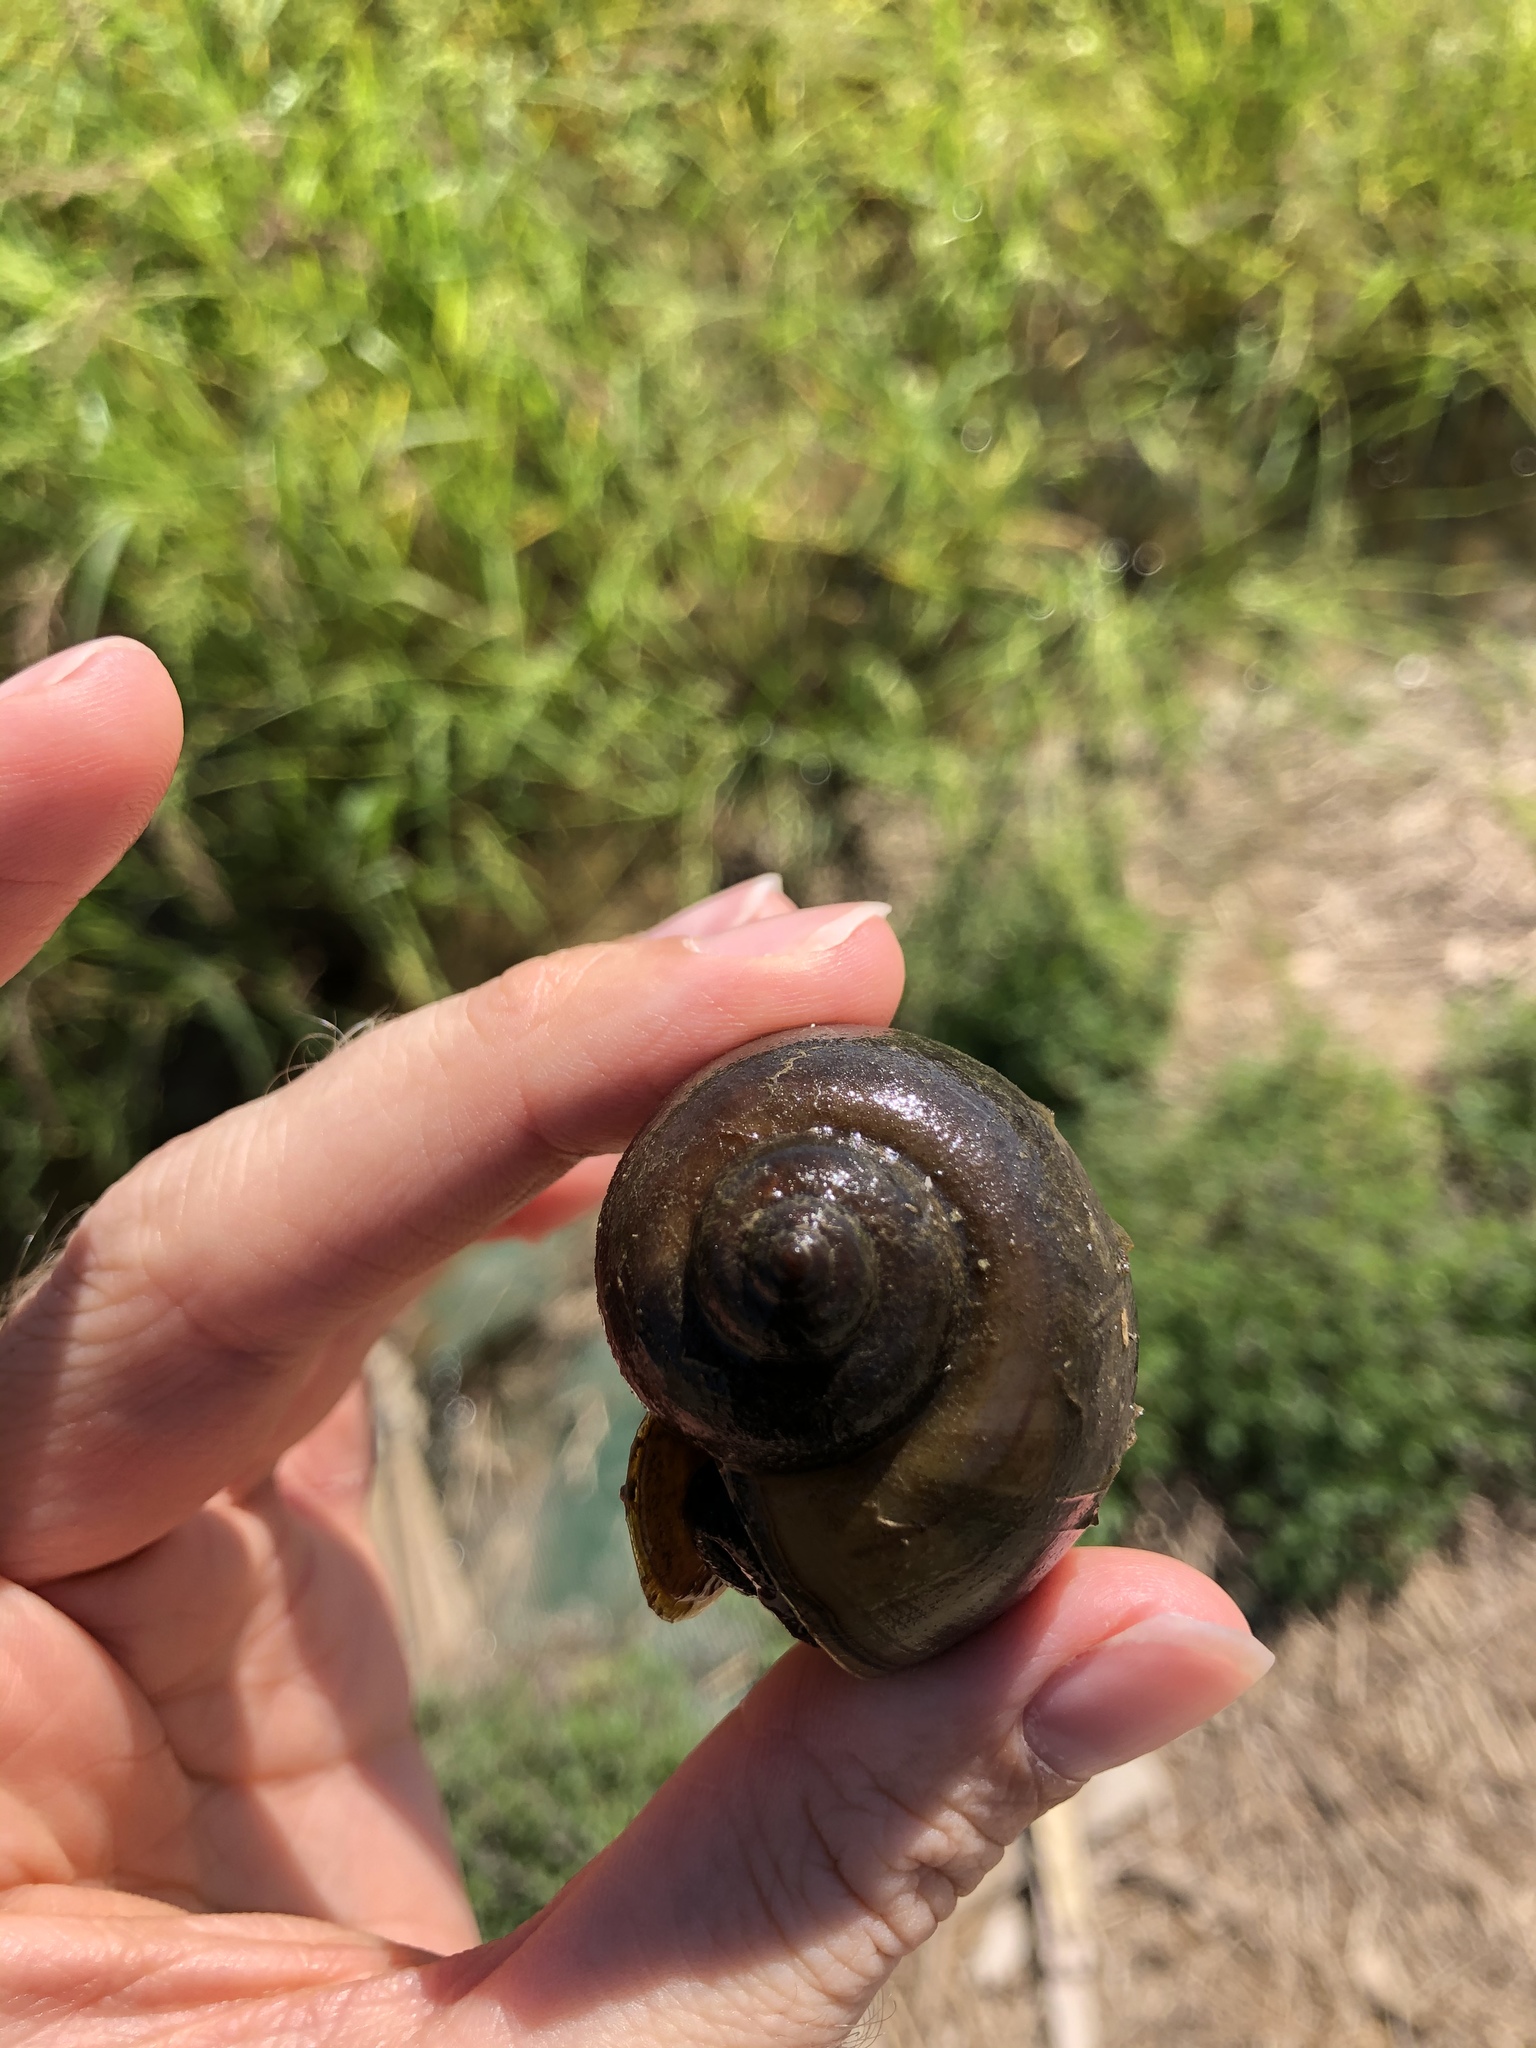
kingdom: Animalia
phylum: Mollusca
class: Gastropoda
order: Architaenioglossa
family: Ampullariidae
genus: Pomacea
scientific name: Pomacea maculata
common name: Giant applesnail
